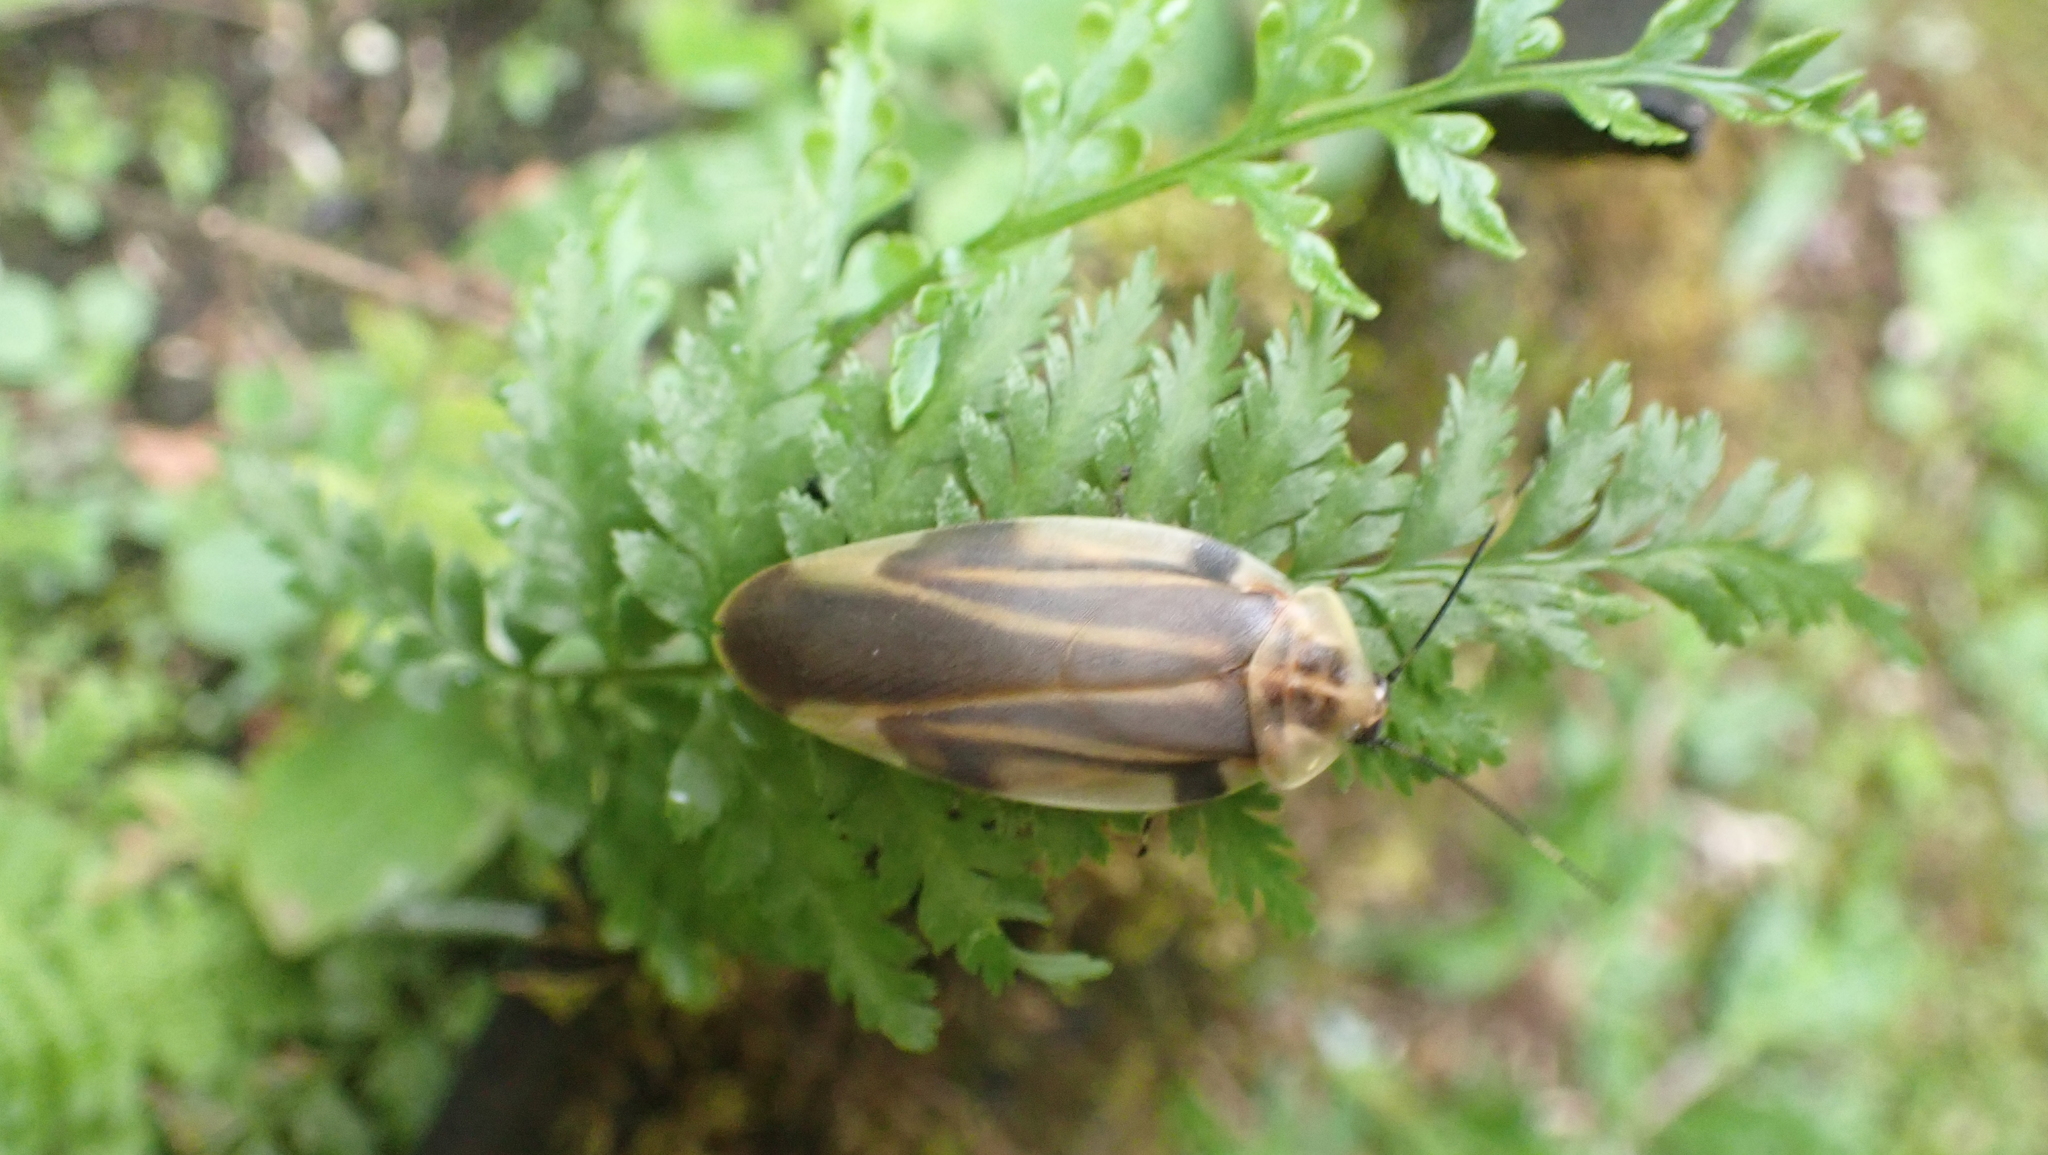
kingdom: Animalia
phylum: Arthropoda
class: Insecta
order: Blattodea
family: Blaberidae
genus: Achroblatta
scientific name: Achroblatta luteola
